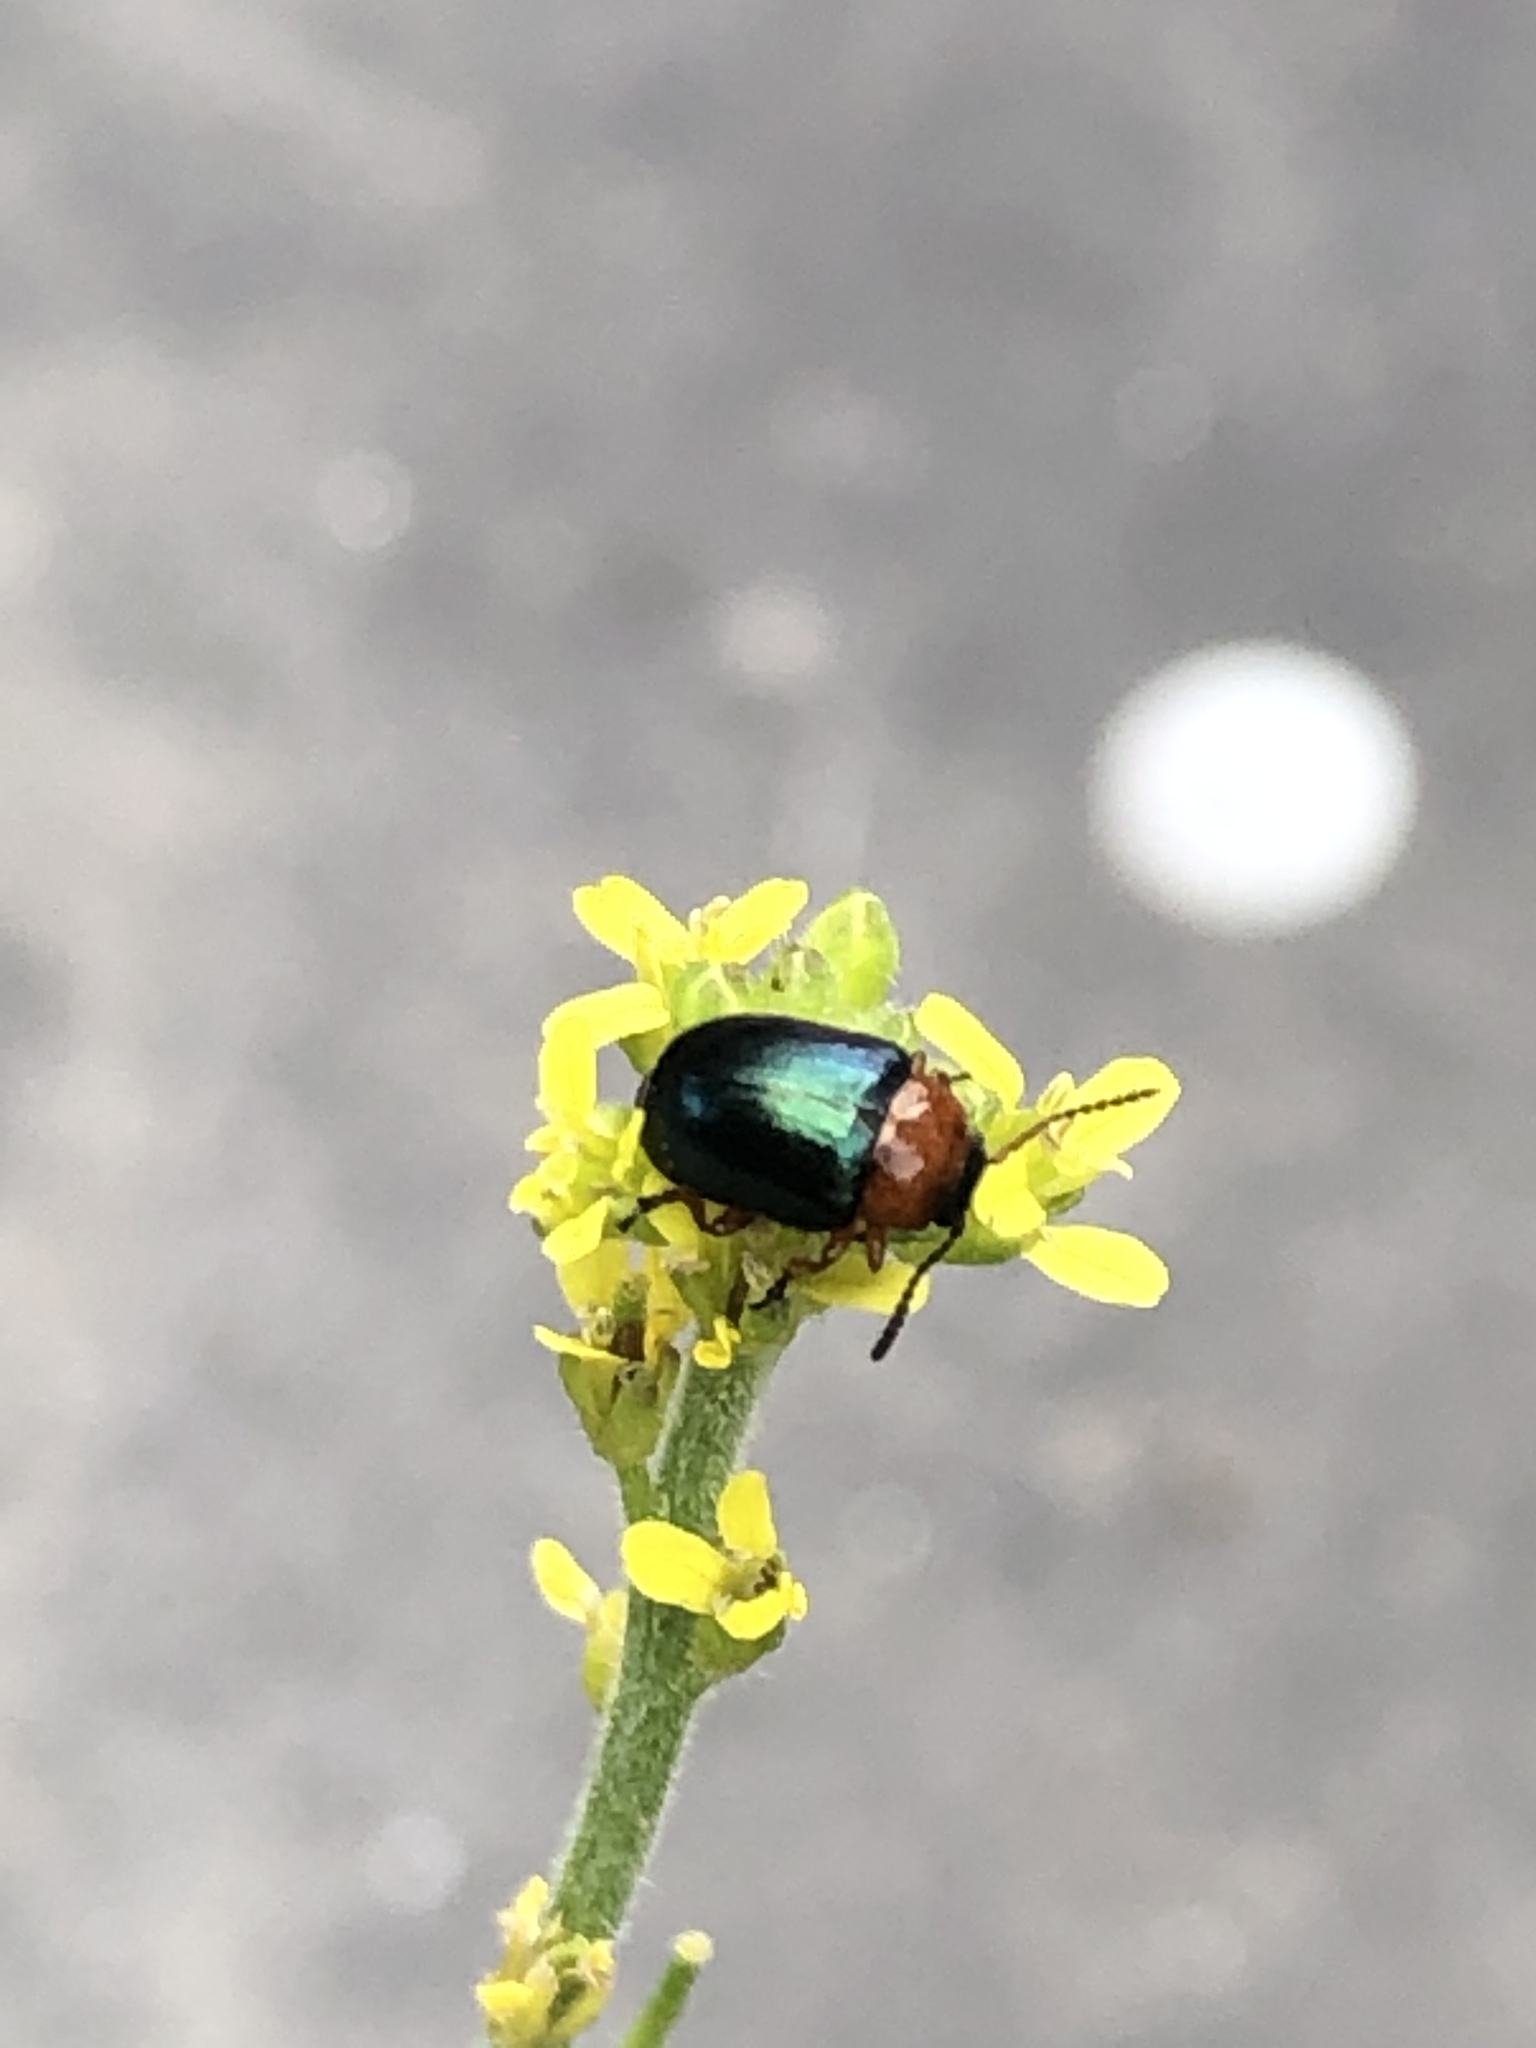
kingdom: Animalia
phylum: Arthropoda
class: Insecta
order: Coleoptera
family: Chrysomelidae
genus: Gastrophysa
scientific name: Gastrophysa polygoni
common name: Knotweed leaf beetle
